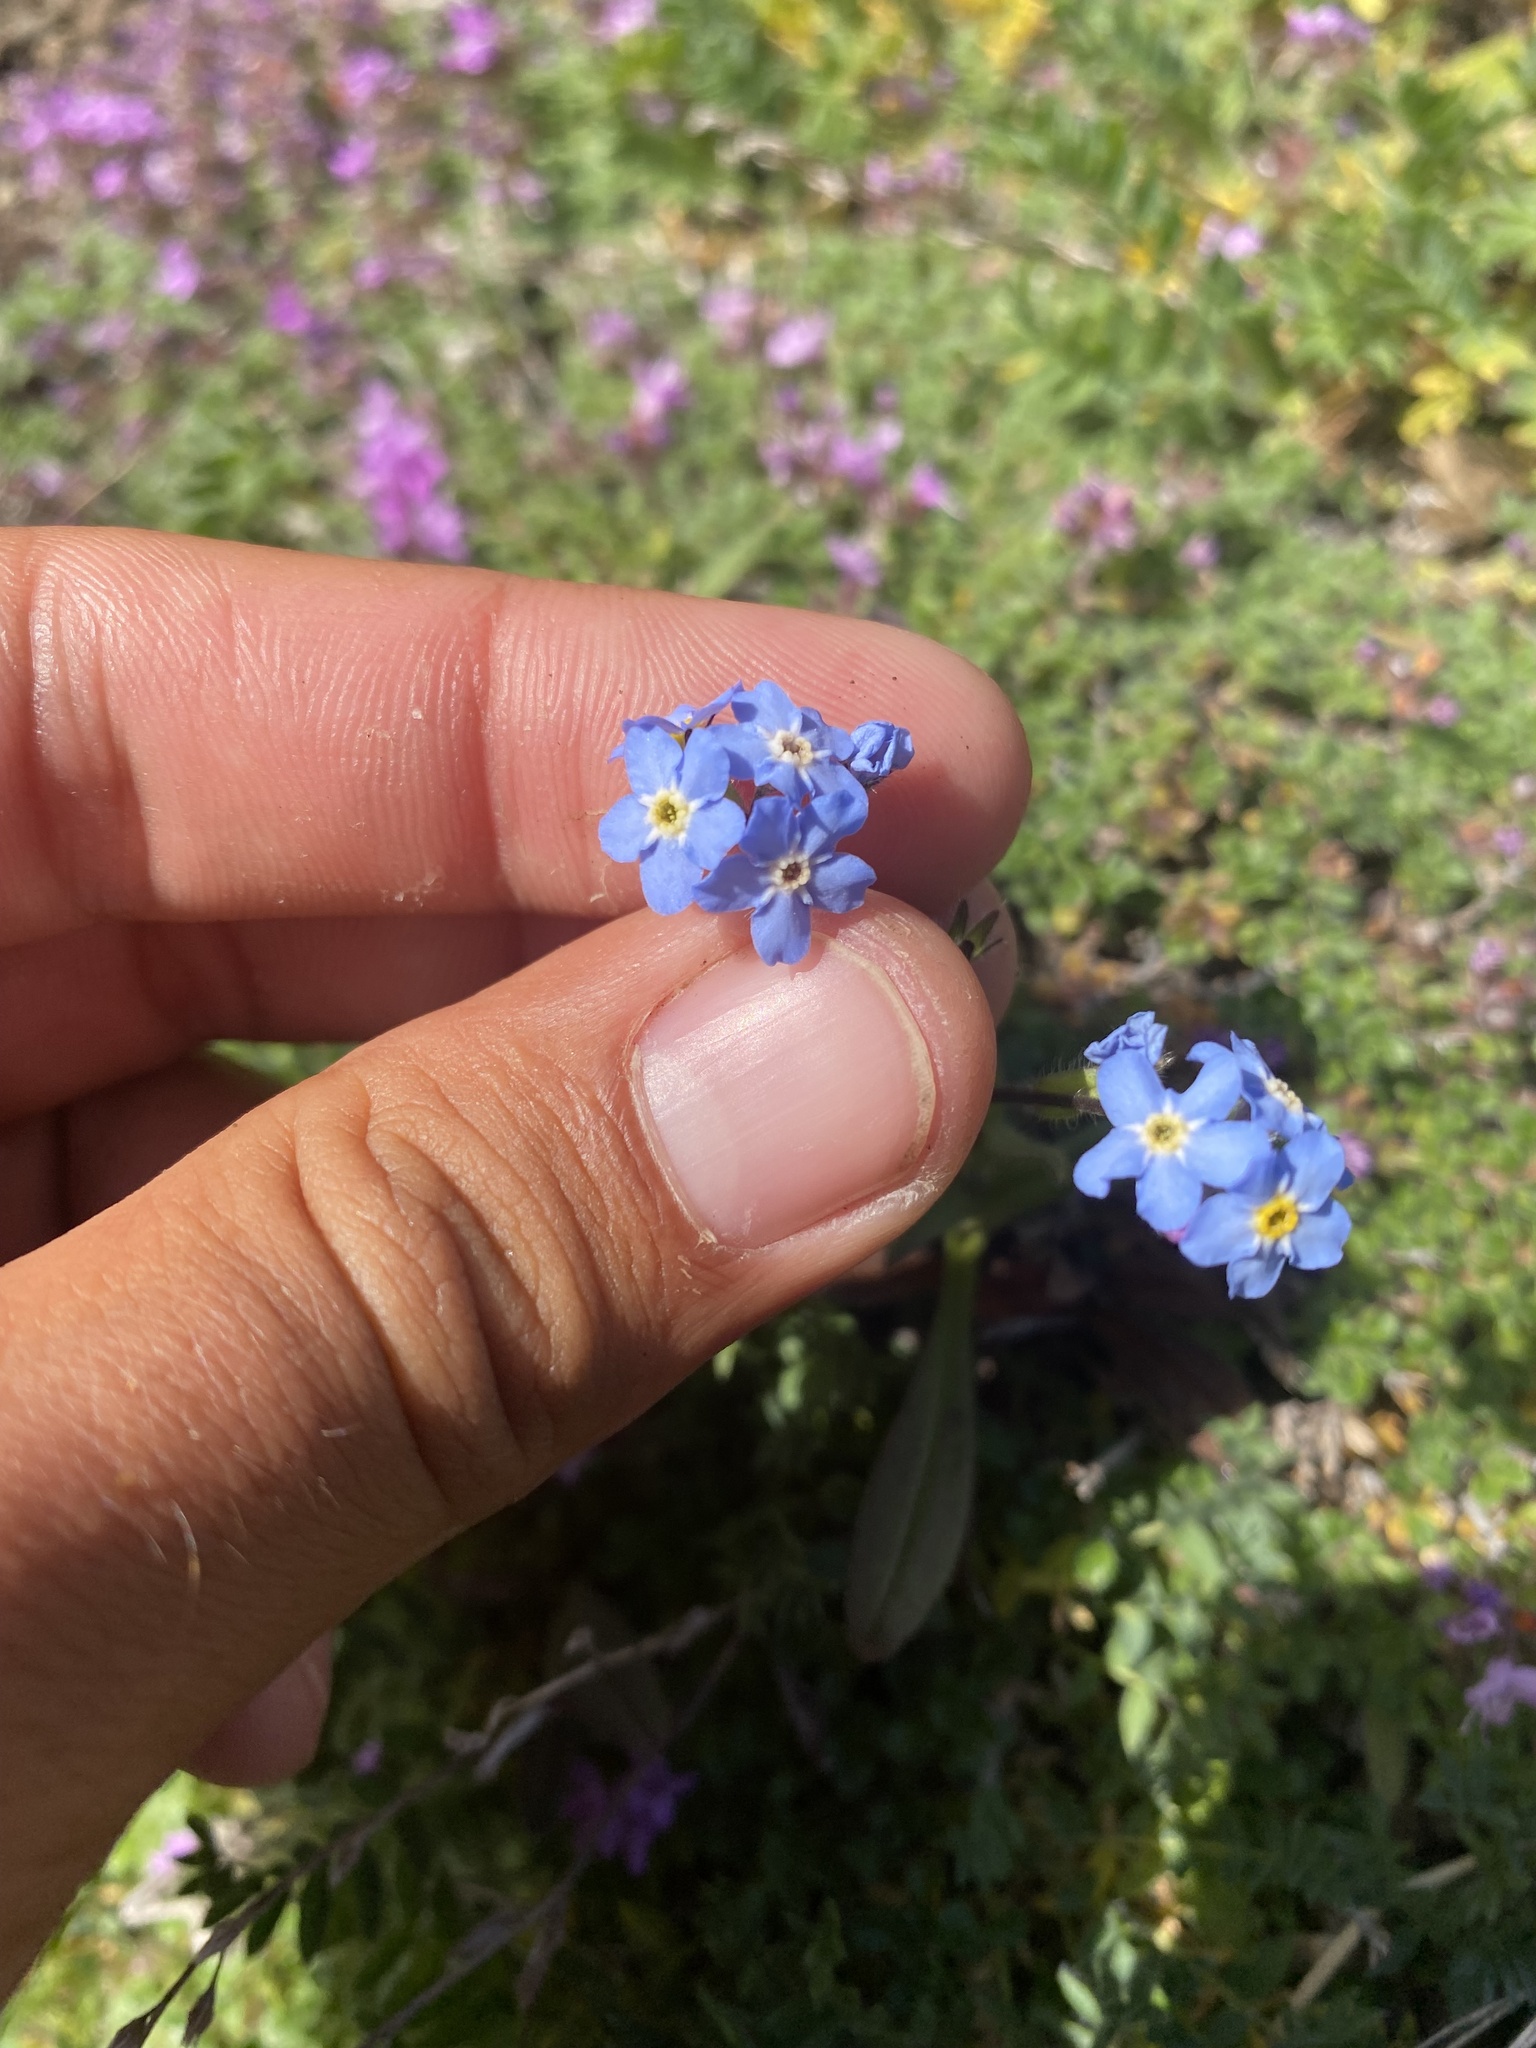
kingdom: Plantae
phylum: Tracheophyta
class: Magnoliopsida
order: Boraginales
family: Boraginaceae
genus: Myosotis
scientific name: Myosotis asiatica
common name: Asian forget-me-not
